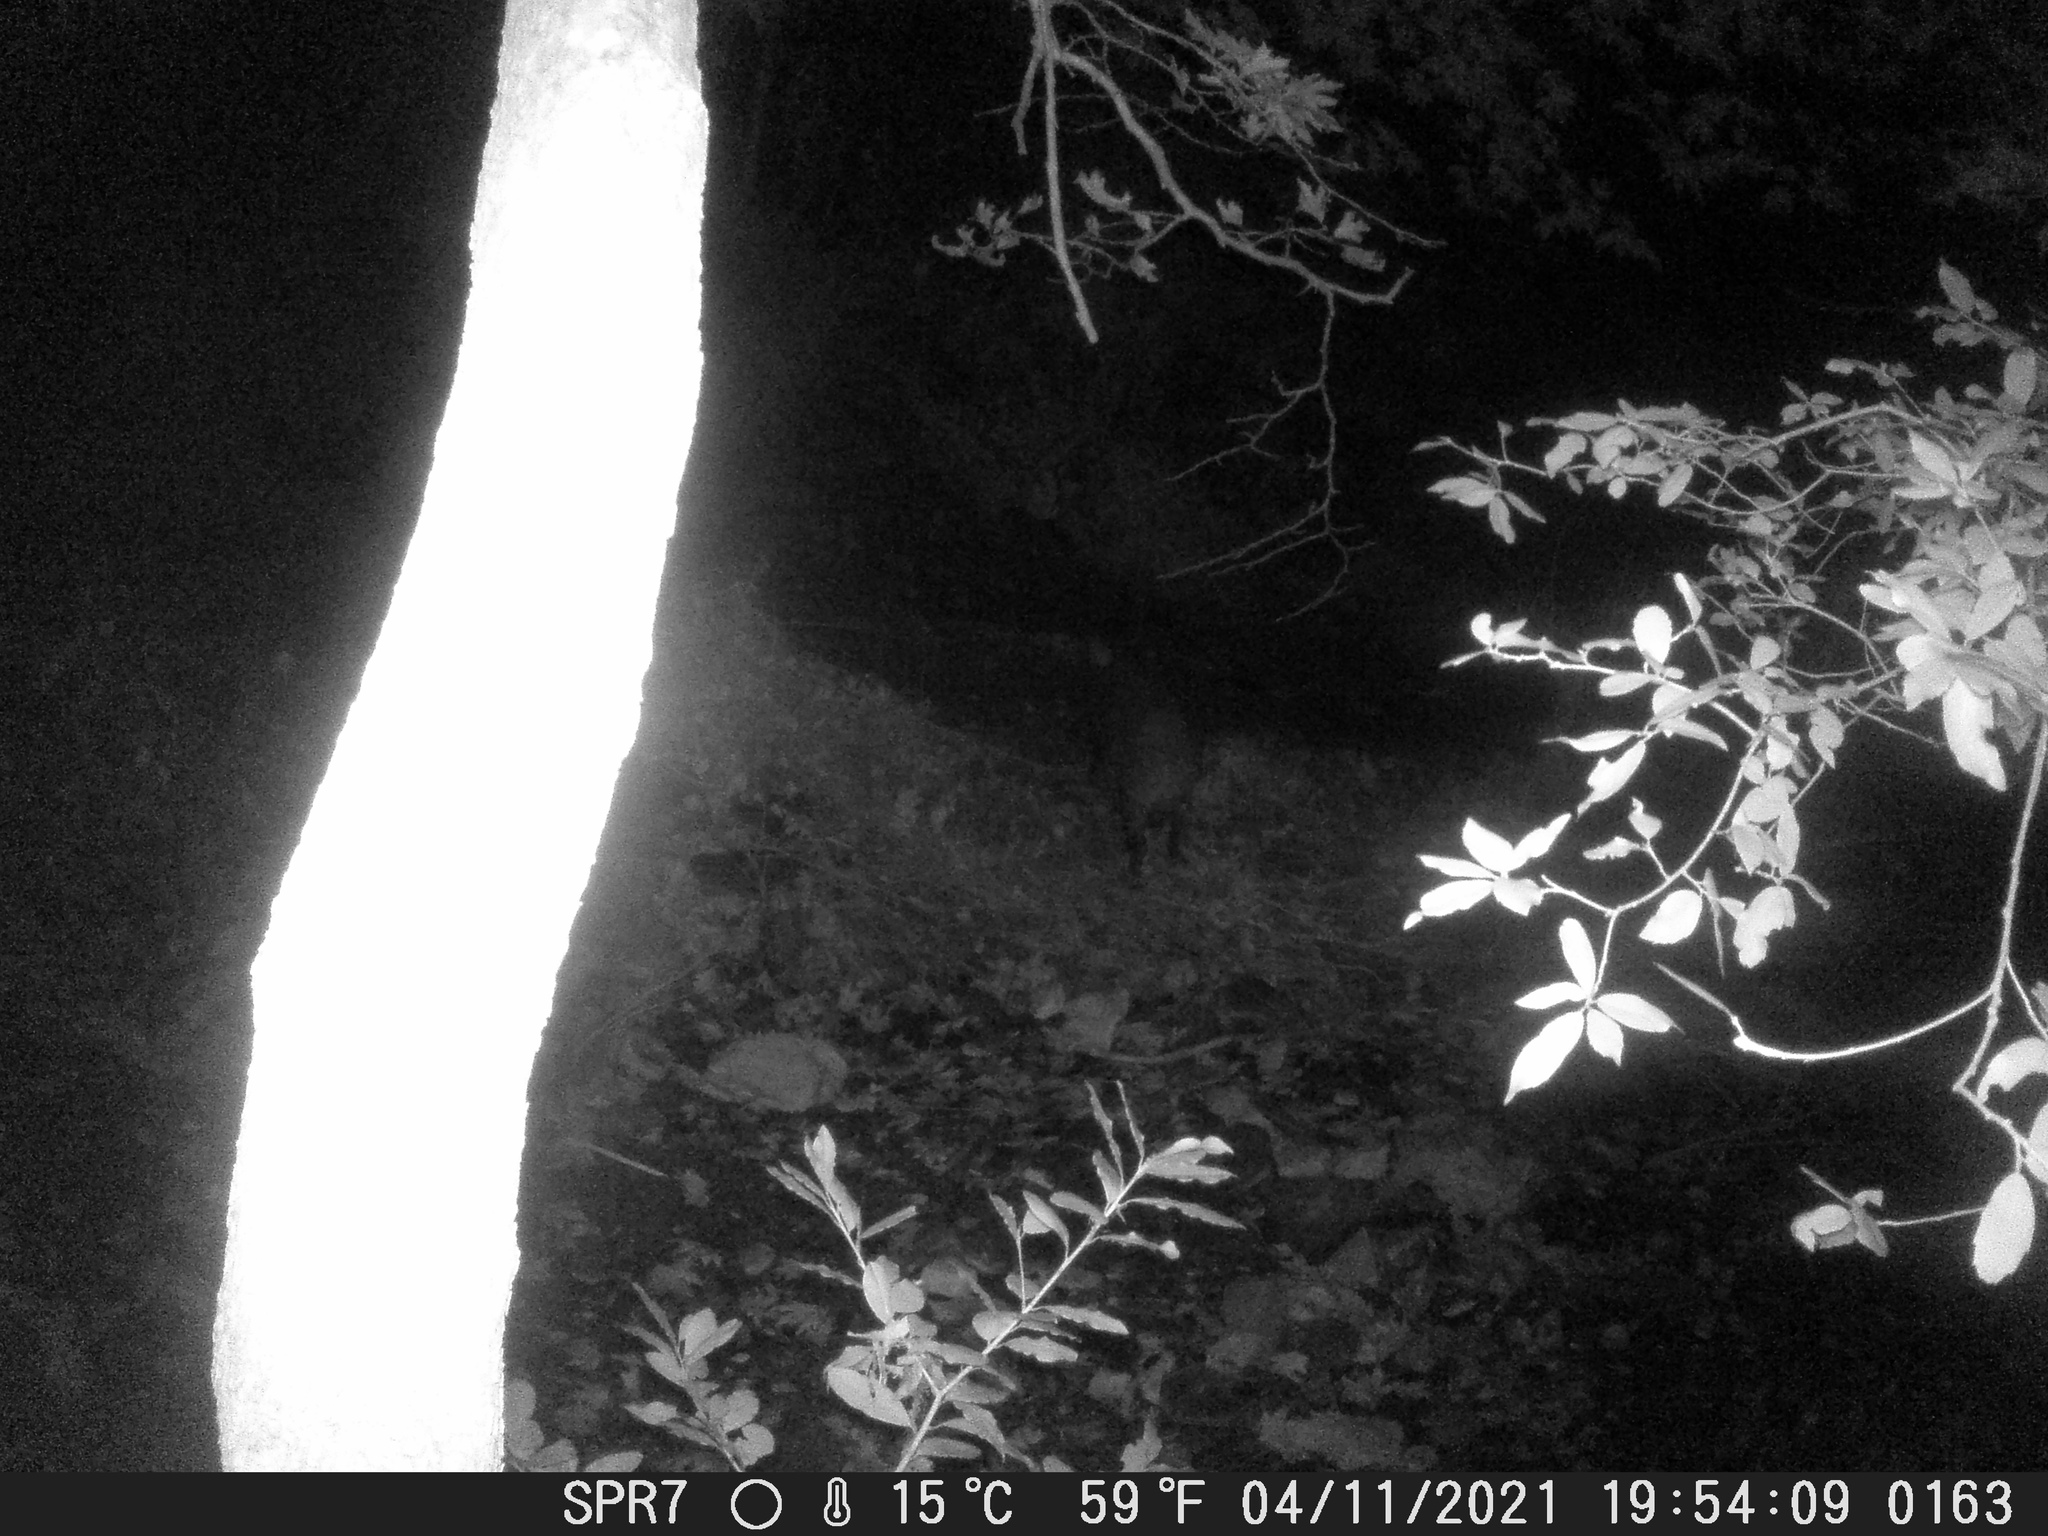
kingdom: Animalia
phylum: Chordata
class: Mammalia
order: Artiodactyla
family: Suidae
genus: Sus
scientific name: Sus scrofa
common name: Wild boar
